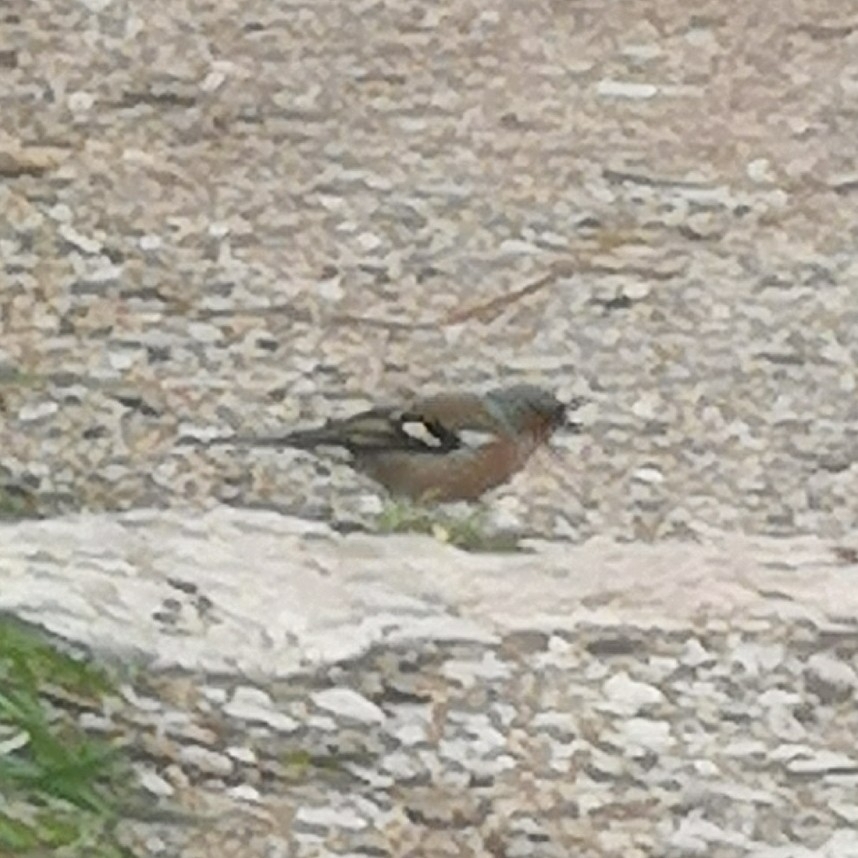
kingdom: Animalia
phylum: Chordata
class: Aves
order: Passeriformes
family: Fringillidae
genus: Fringilla
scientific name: Fringilla coelebs
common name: Common chaffinch
